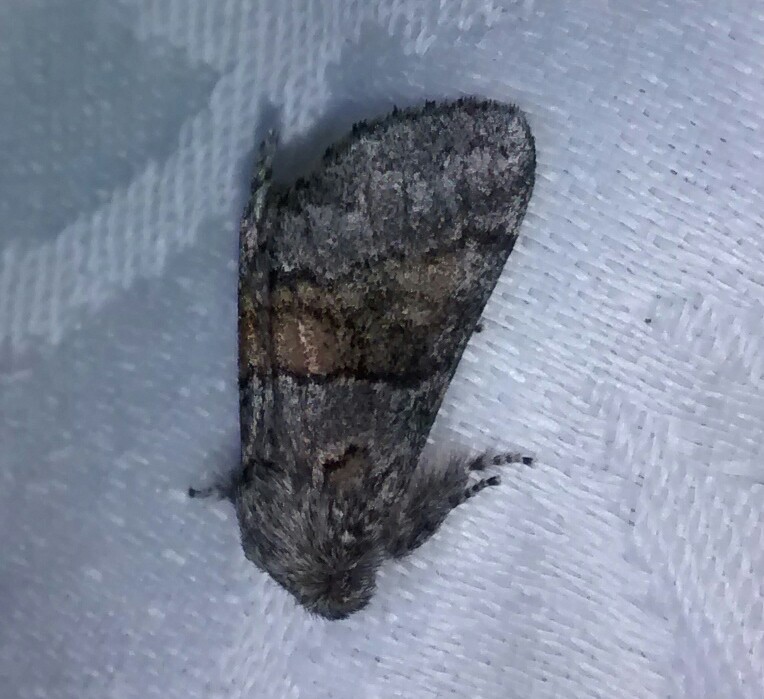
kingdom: Animalia
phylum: Arthropoda
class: Insecta
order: Lepidoptera
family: Notodontidae
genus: Gluphisia
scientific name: Gluphisia septentrionis
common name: Common gluphisia
